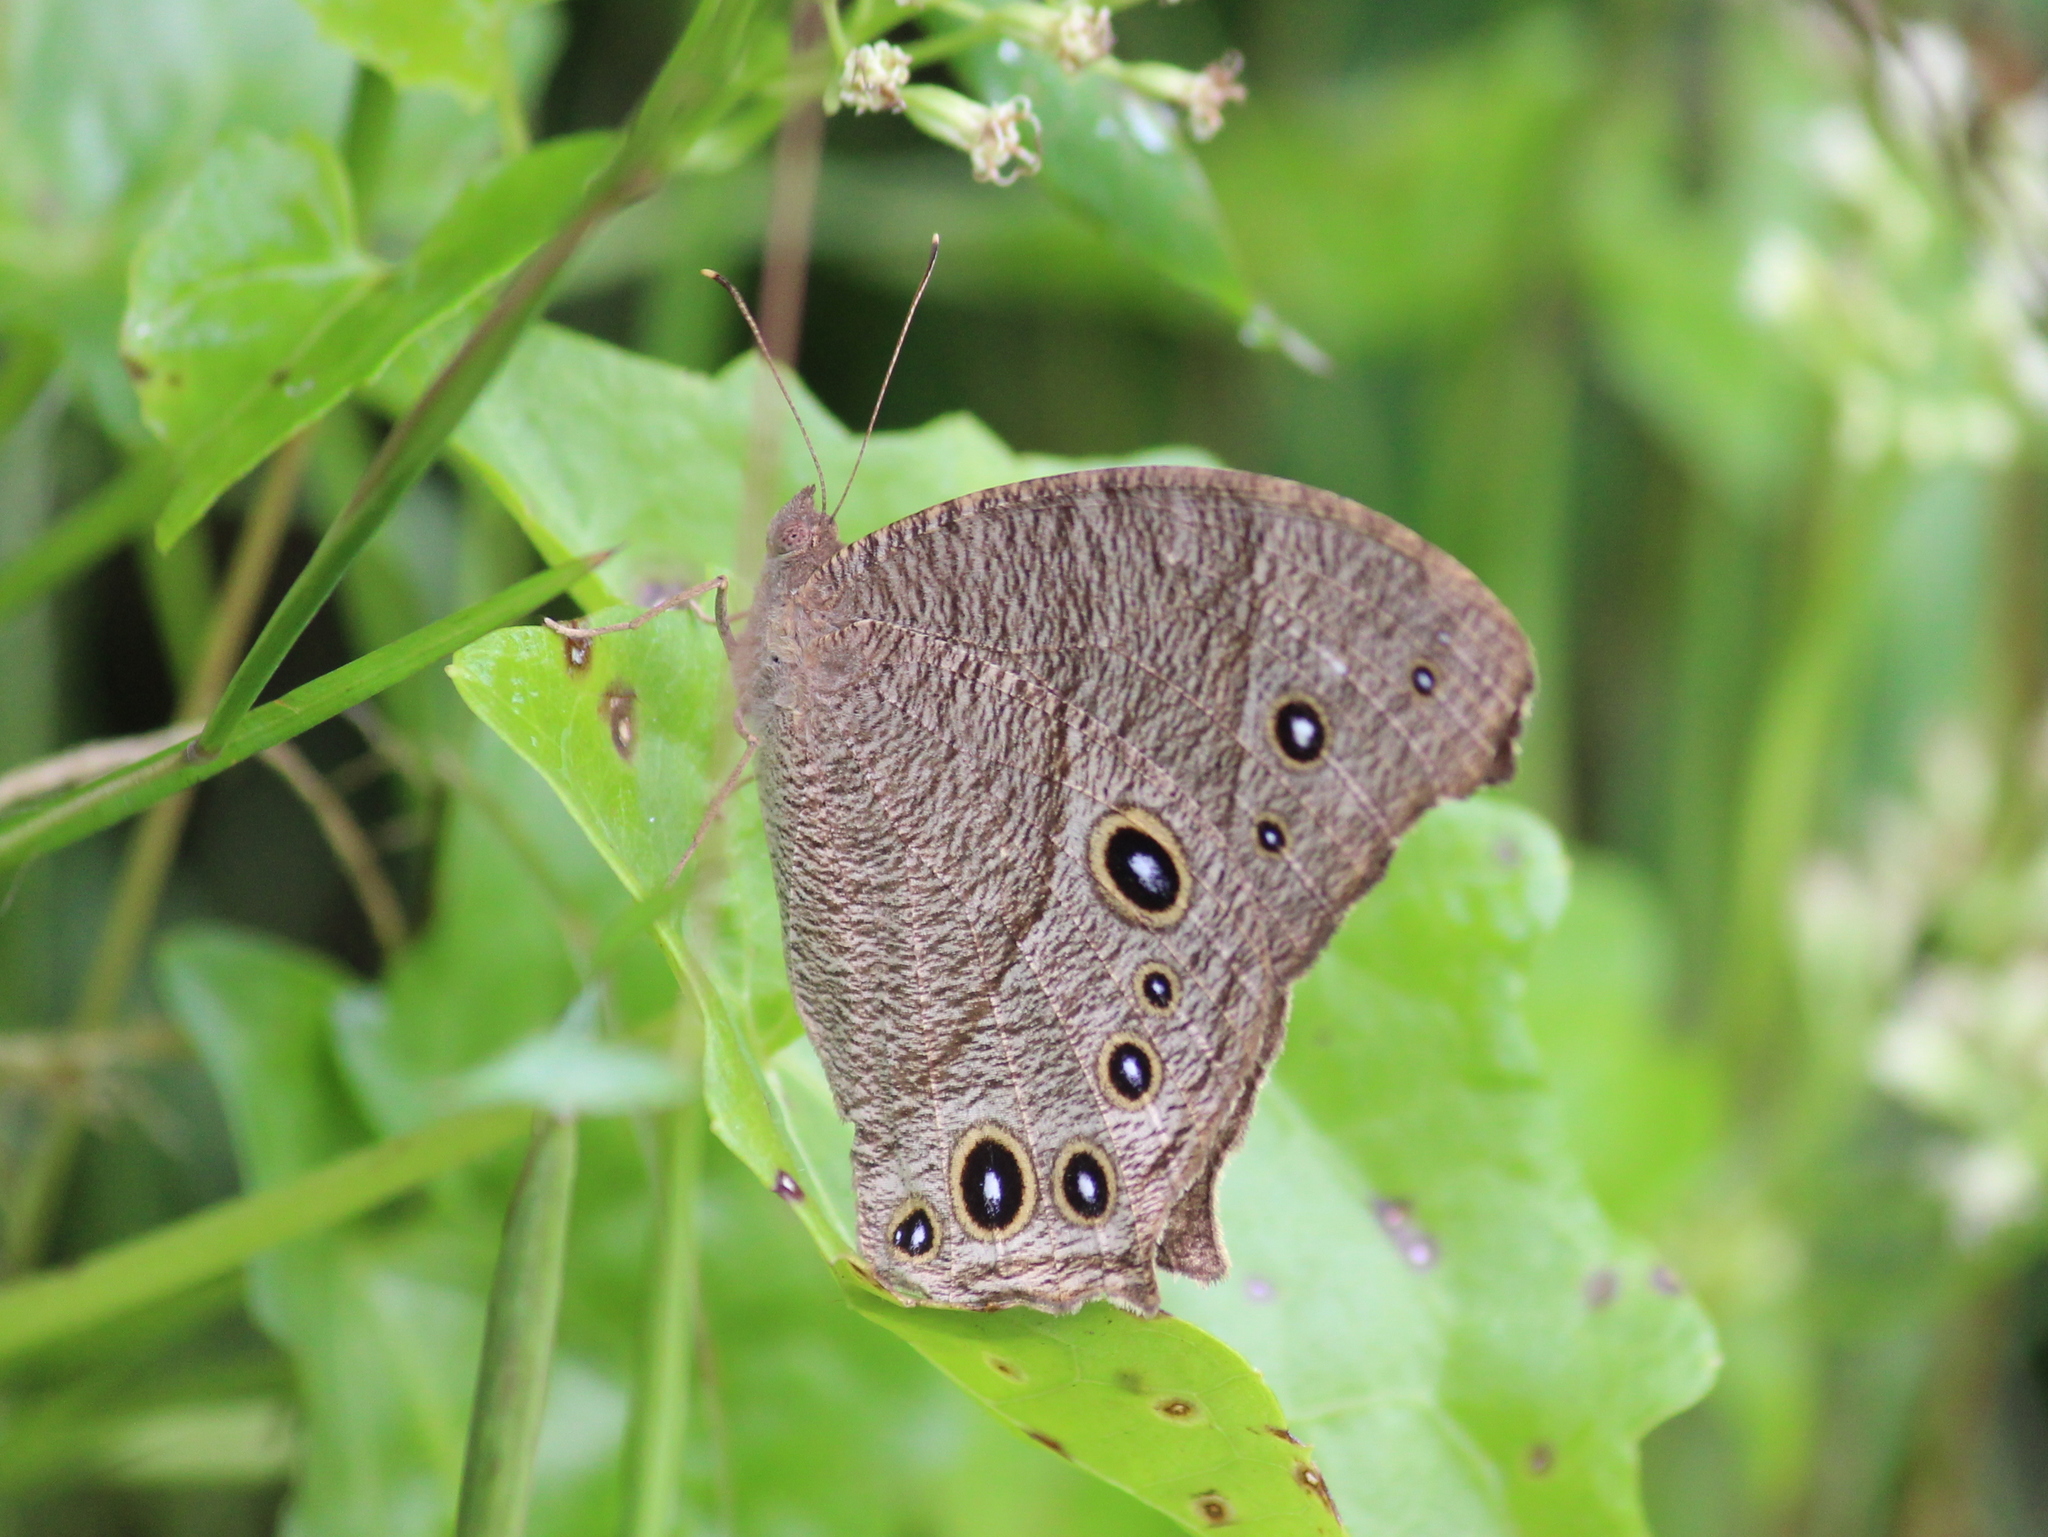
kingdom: Animalia
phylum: Arthropoda
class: Insecta
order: Lepidoptera
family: Nymphalidae
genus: Melanitis
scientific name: Melanitis leda
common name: Twilight brown
